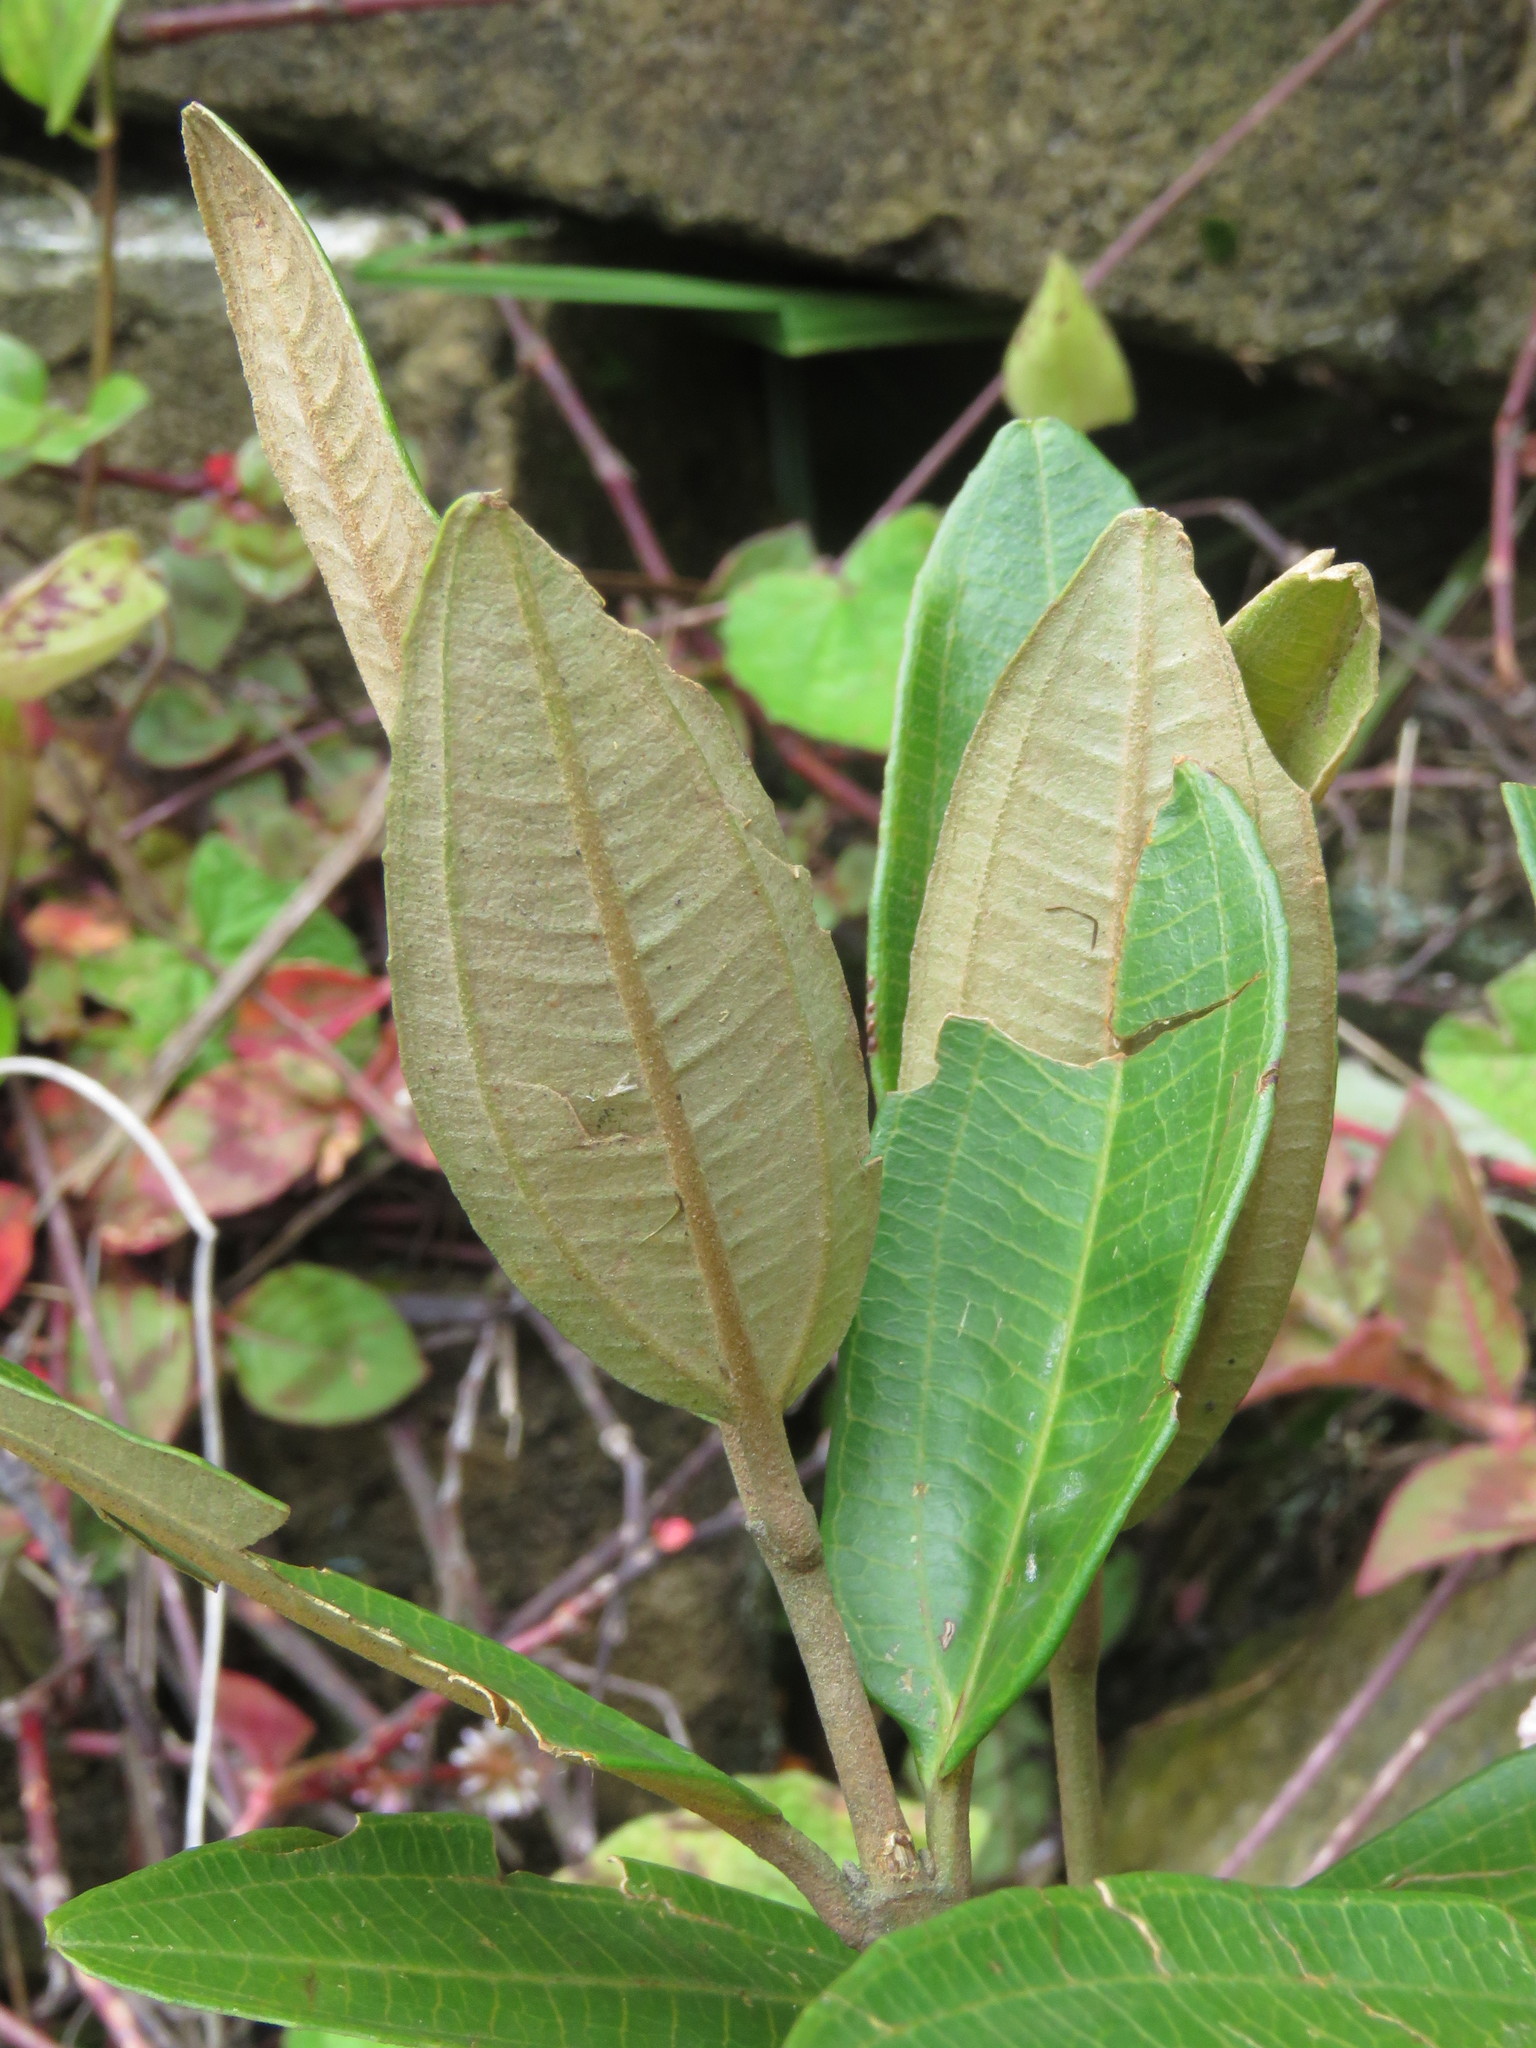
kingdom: Plantae
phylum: Tracheophyta
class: Magnoliopsida
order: Myrtales
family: Melastomataceae
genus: Miconia
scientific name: Miconia squamulosa
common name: Squamulose maya
